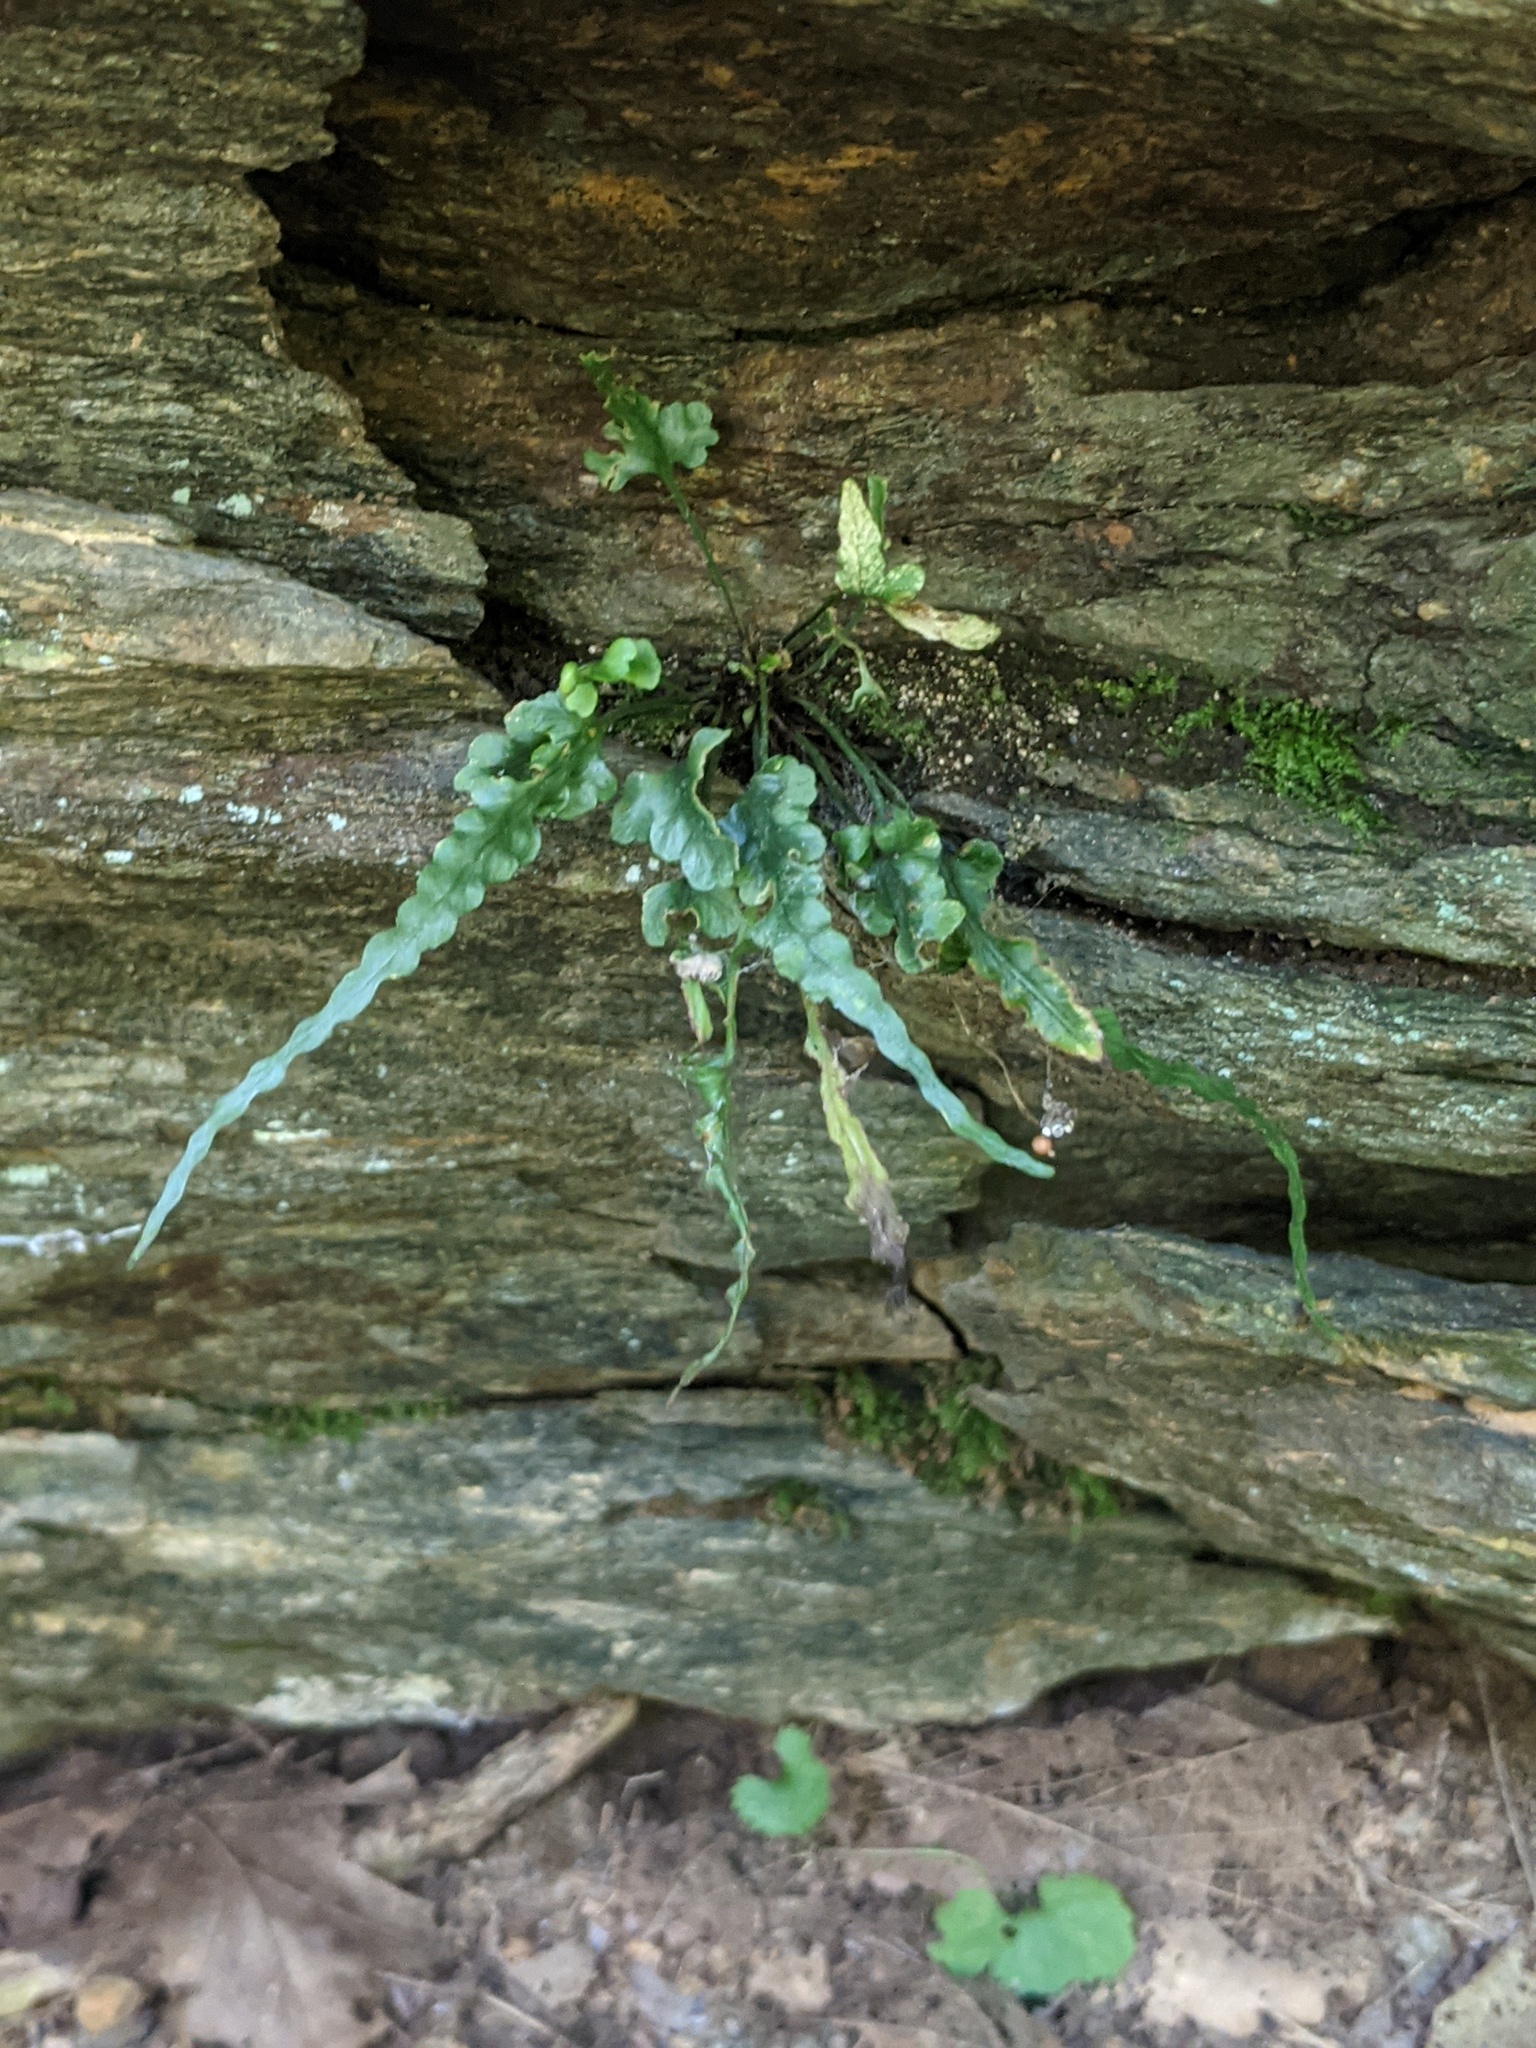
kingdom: Plantae
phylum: Tracheophyta
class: Polypodiopsida
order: Polypodiales
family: Aspleniaceae
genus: Asplenium
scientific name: Asplenium pinnatifidum
